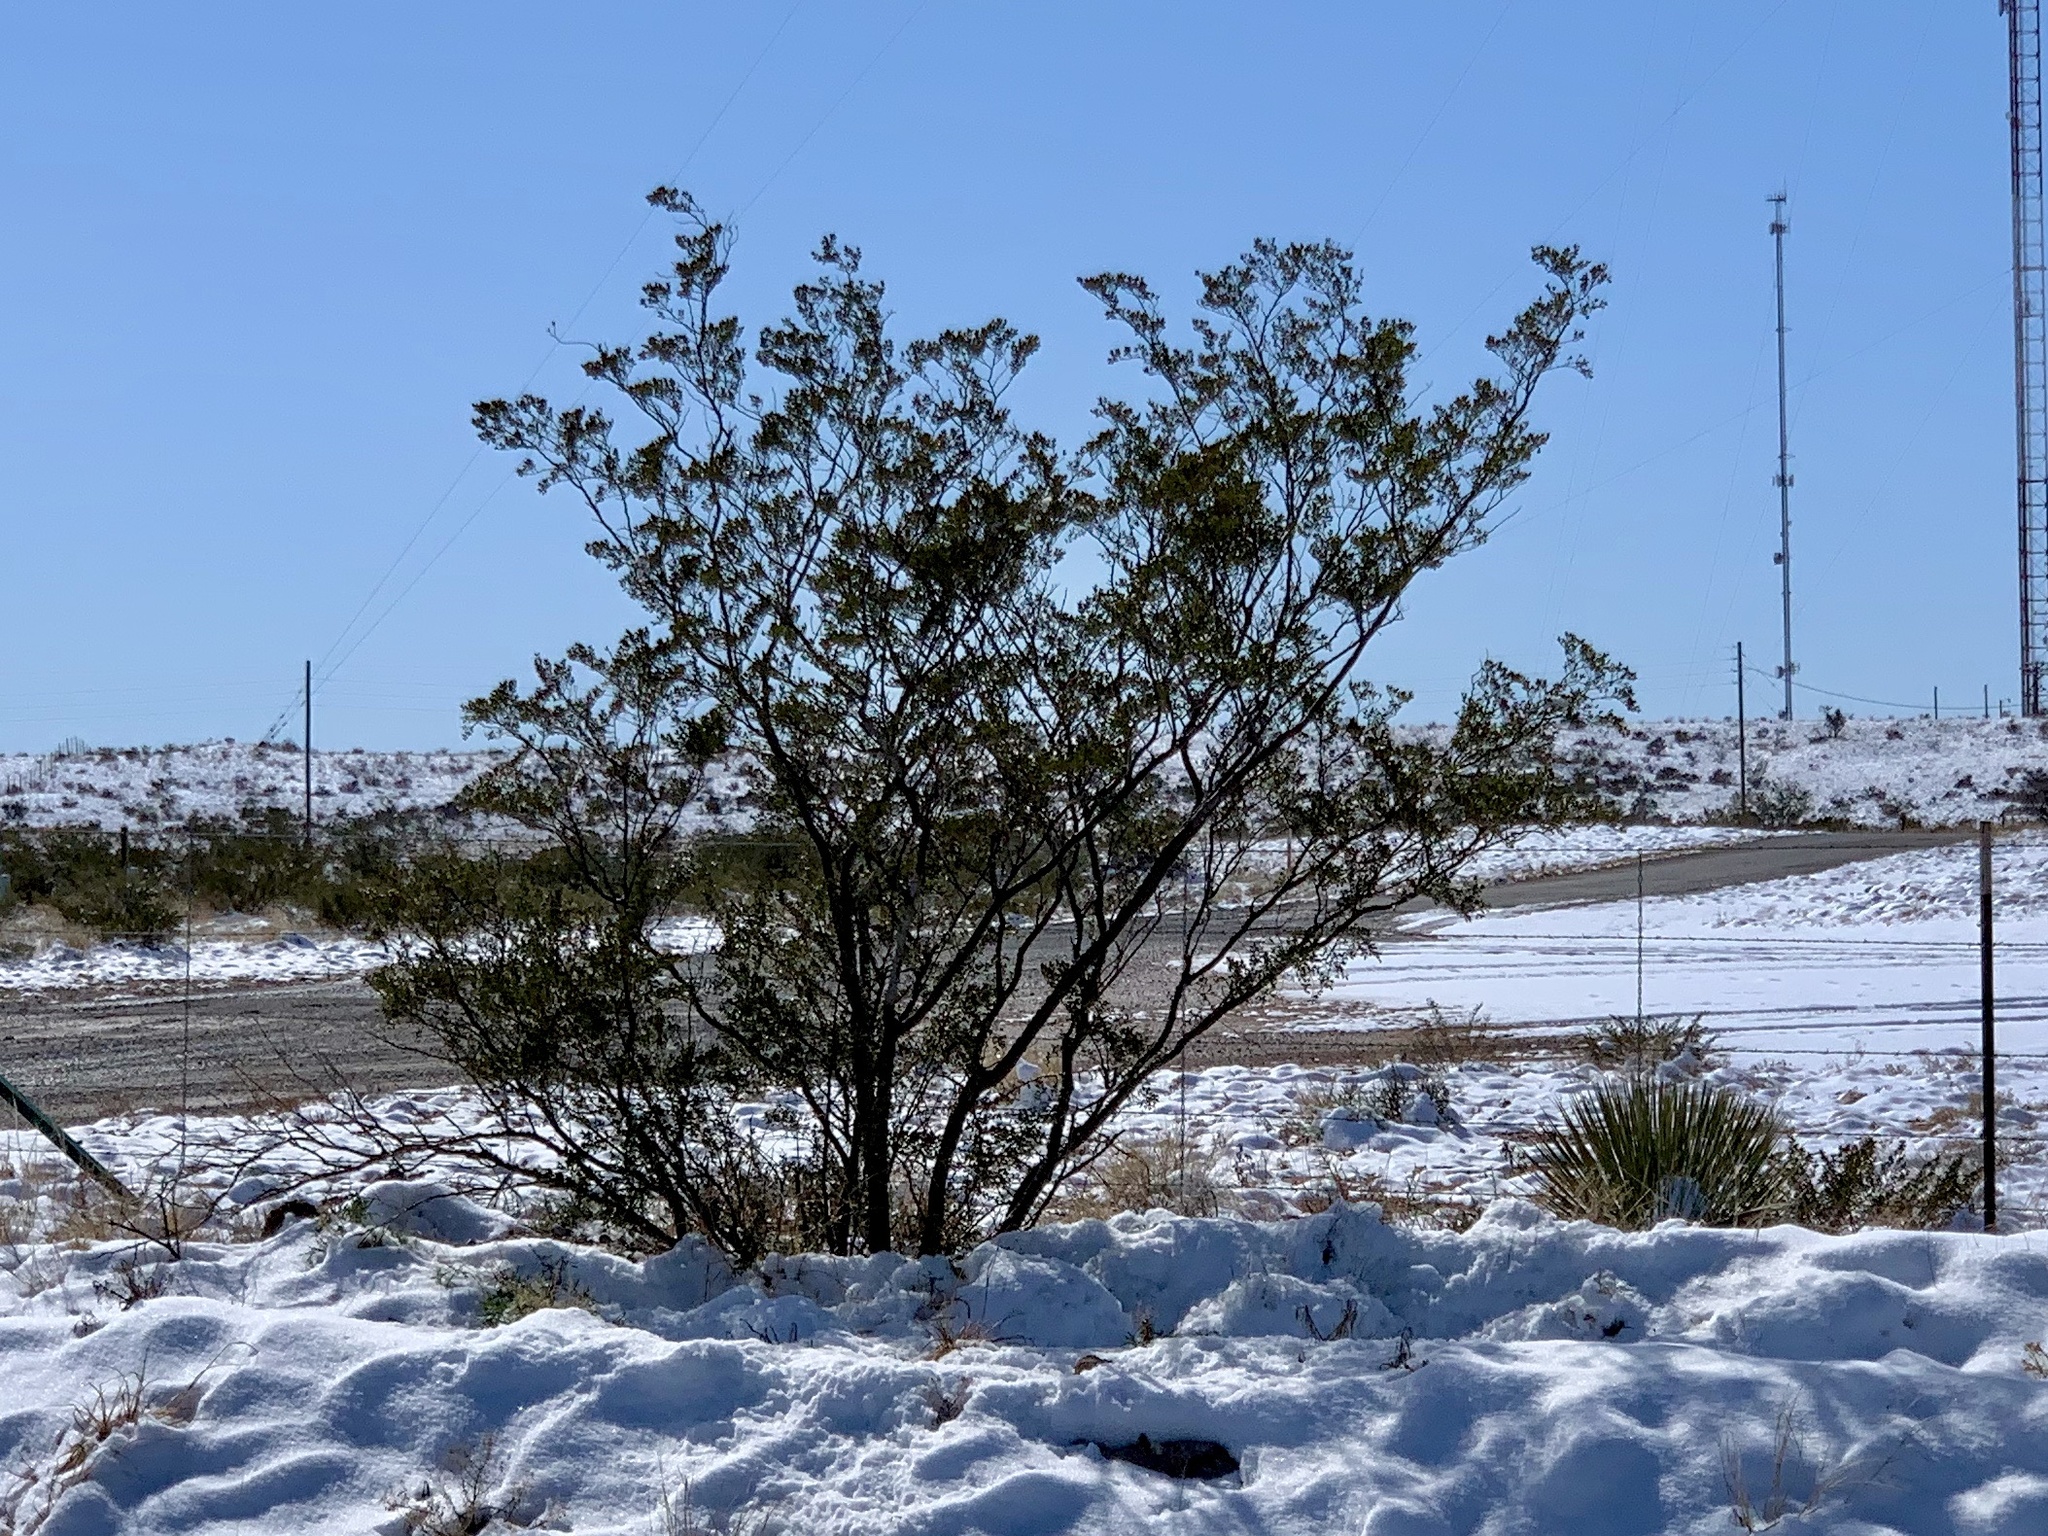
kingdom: Plantae
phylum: Tracheophyta
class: Magnoliopsida
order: Zygophyllales
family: Zygophyllaceae
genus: Larrea
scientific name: Larrea tridentata
